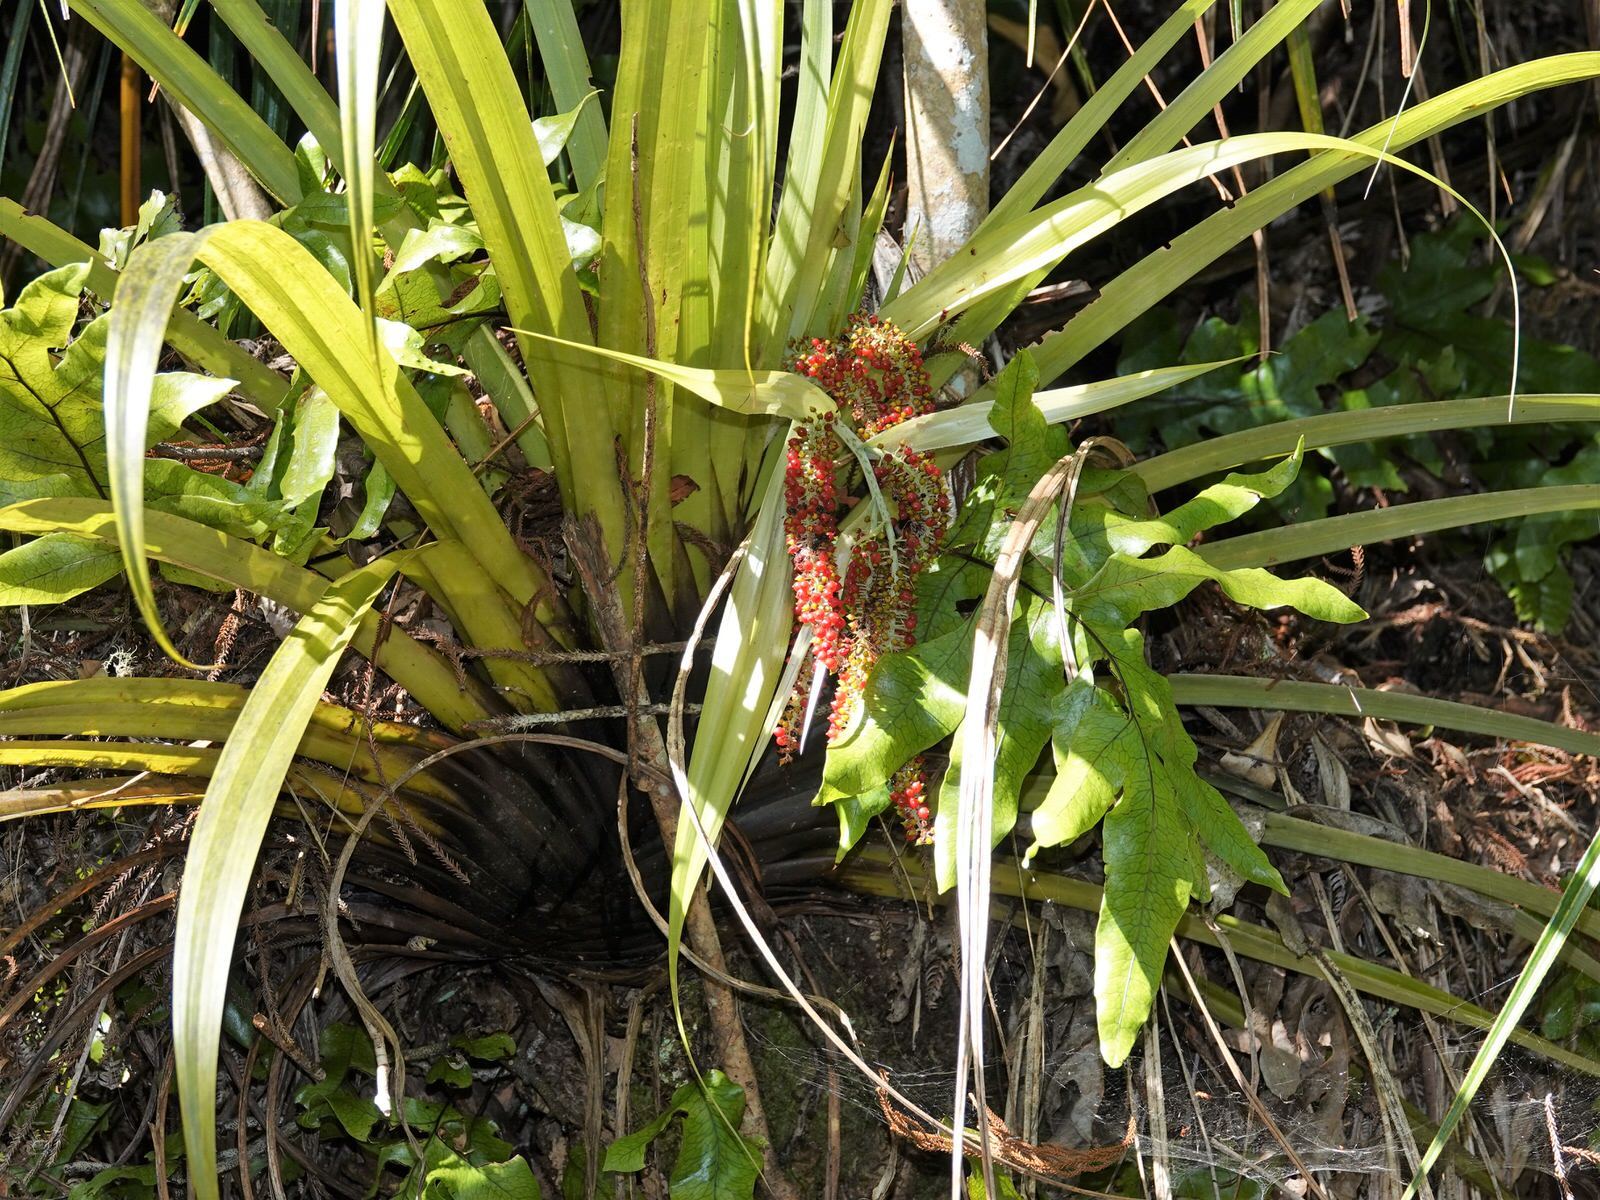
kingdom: Plantae
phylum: Tracheophyta
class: Liliopsida
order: Asparagales
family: Asteliaceae
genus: Astelia
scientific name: Astelia hastata
